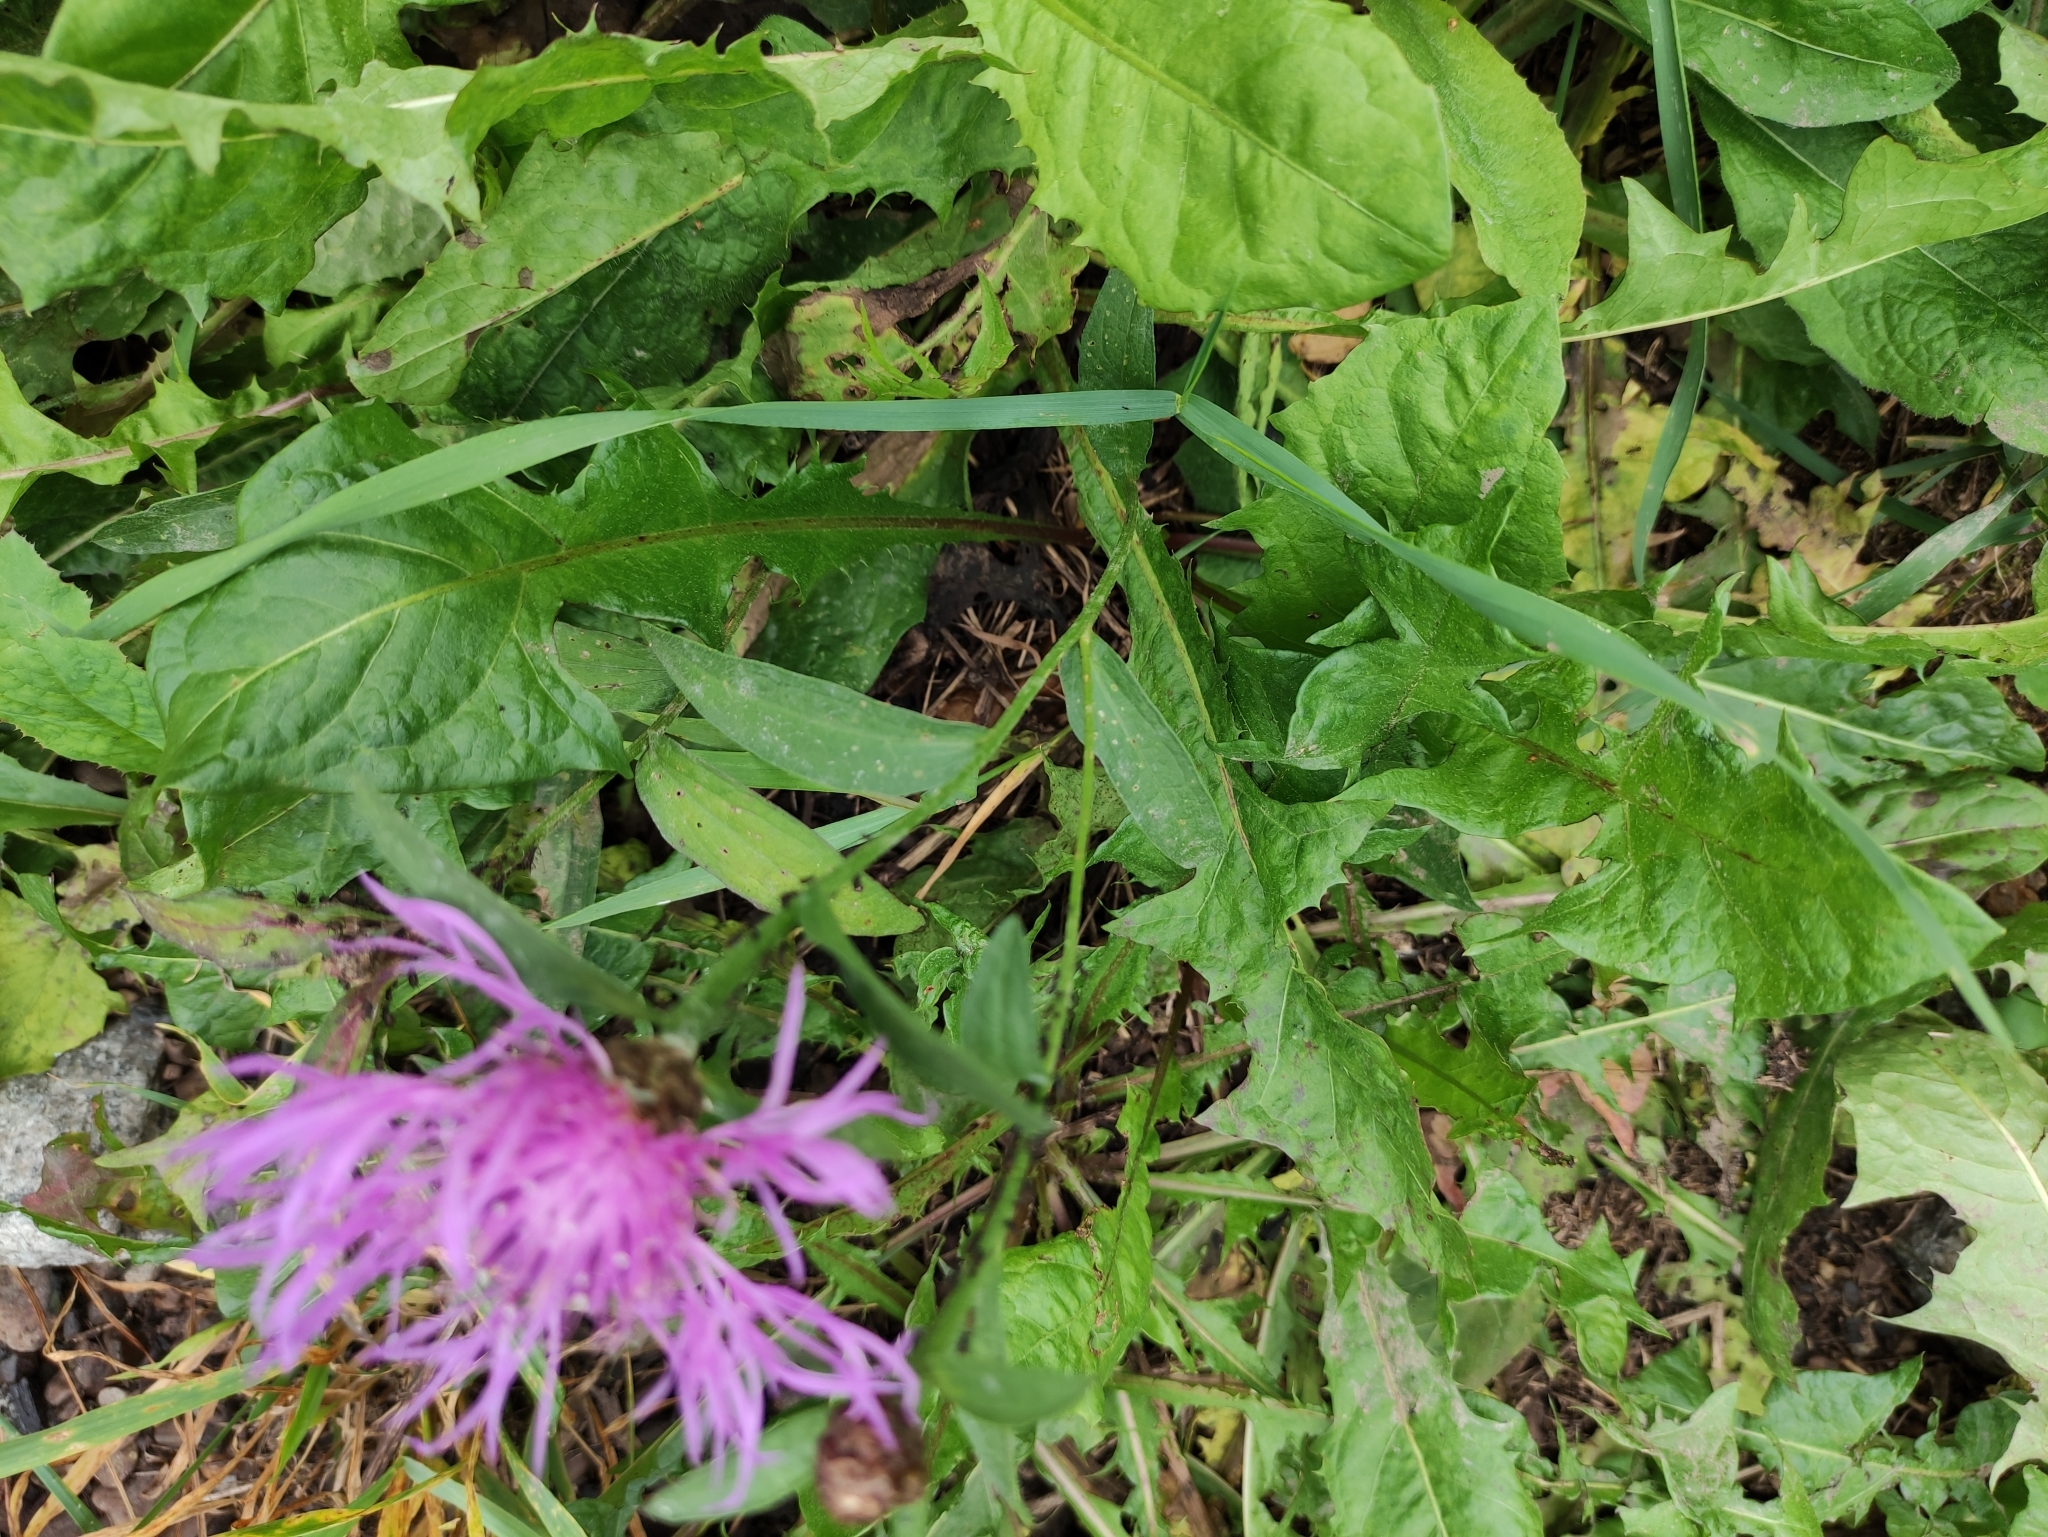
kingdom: Plantae
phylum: Tracheophyta
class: Magnoliopsida
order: Asterales
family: Asteraceae
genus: Centaurea
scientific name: Centaurea jacea
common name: Brown knapweed
